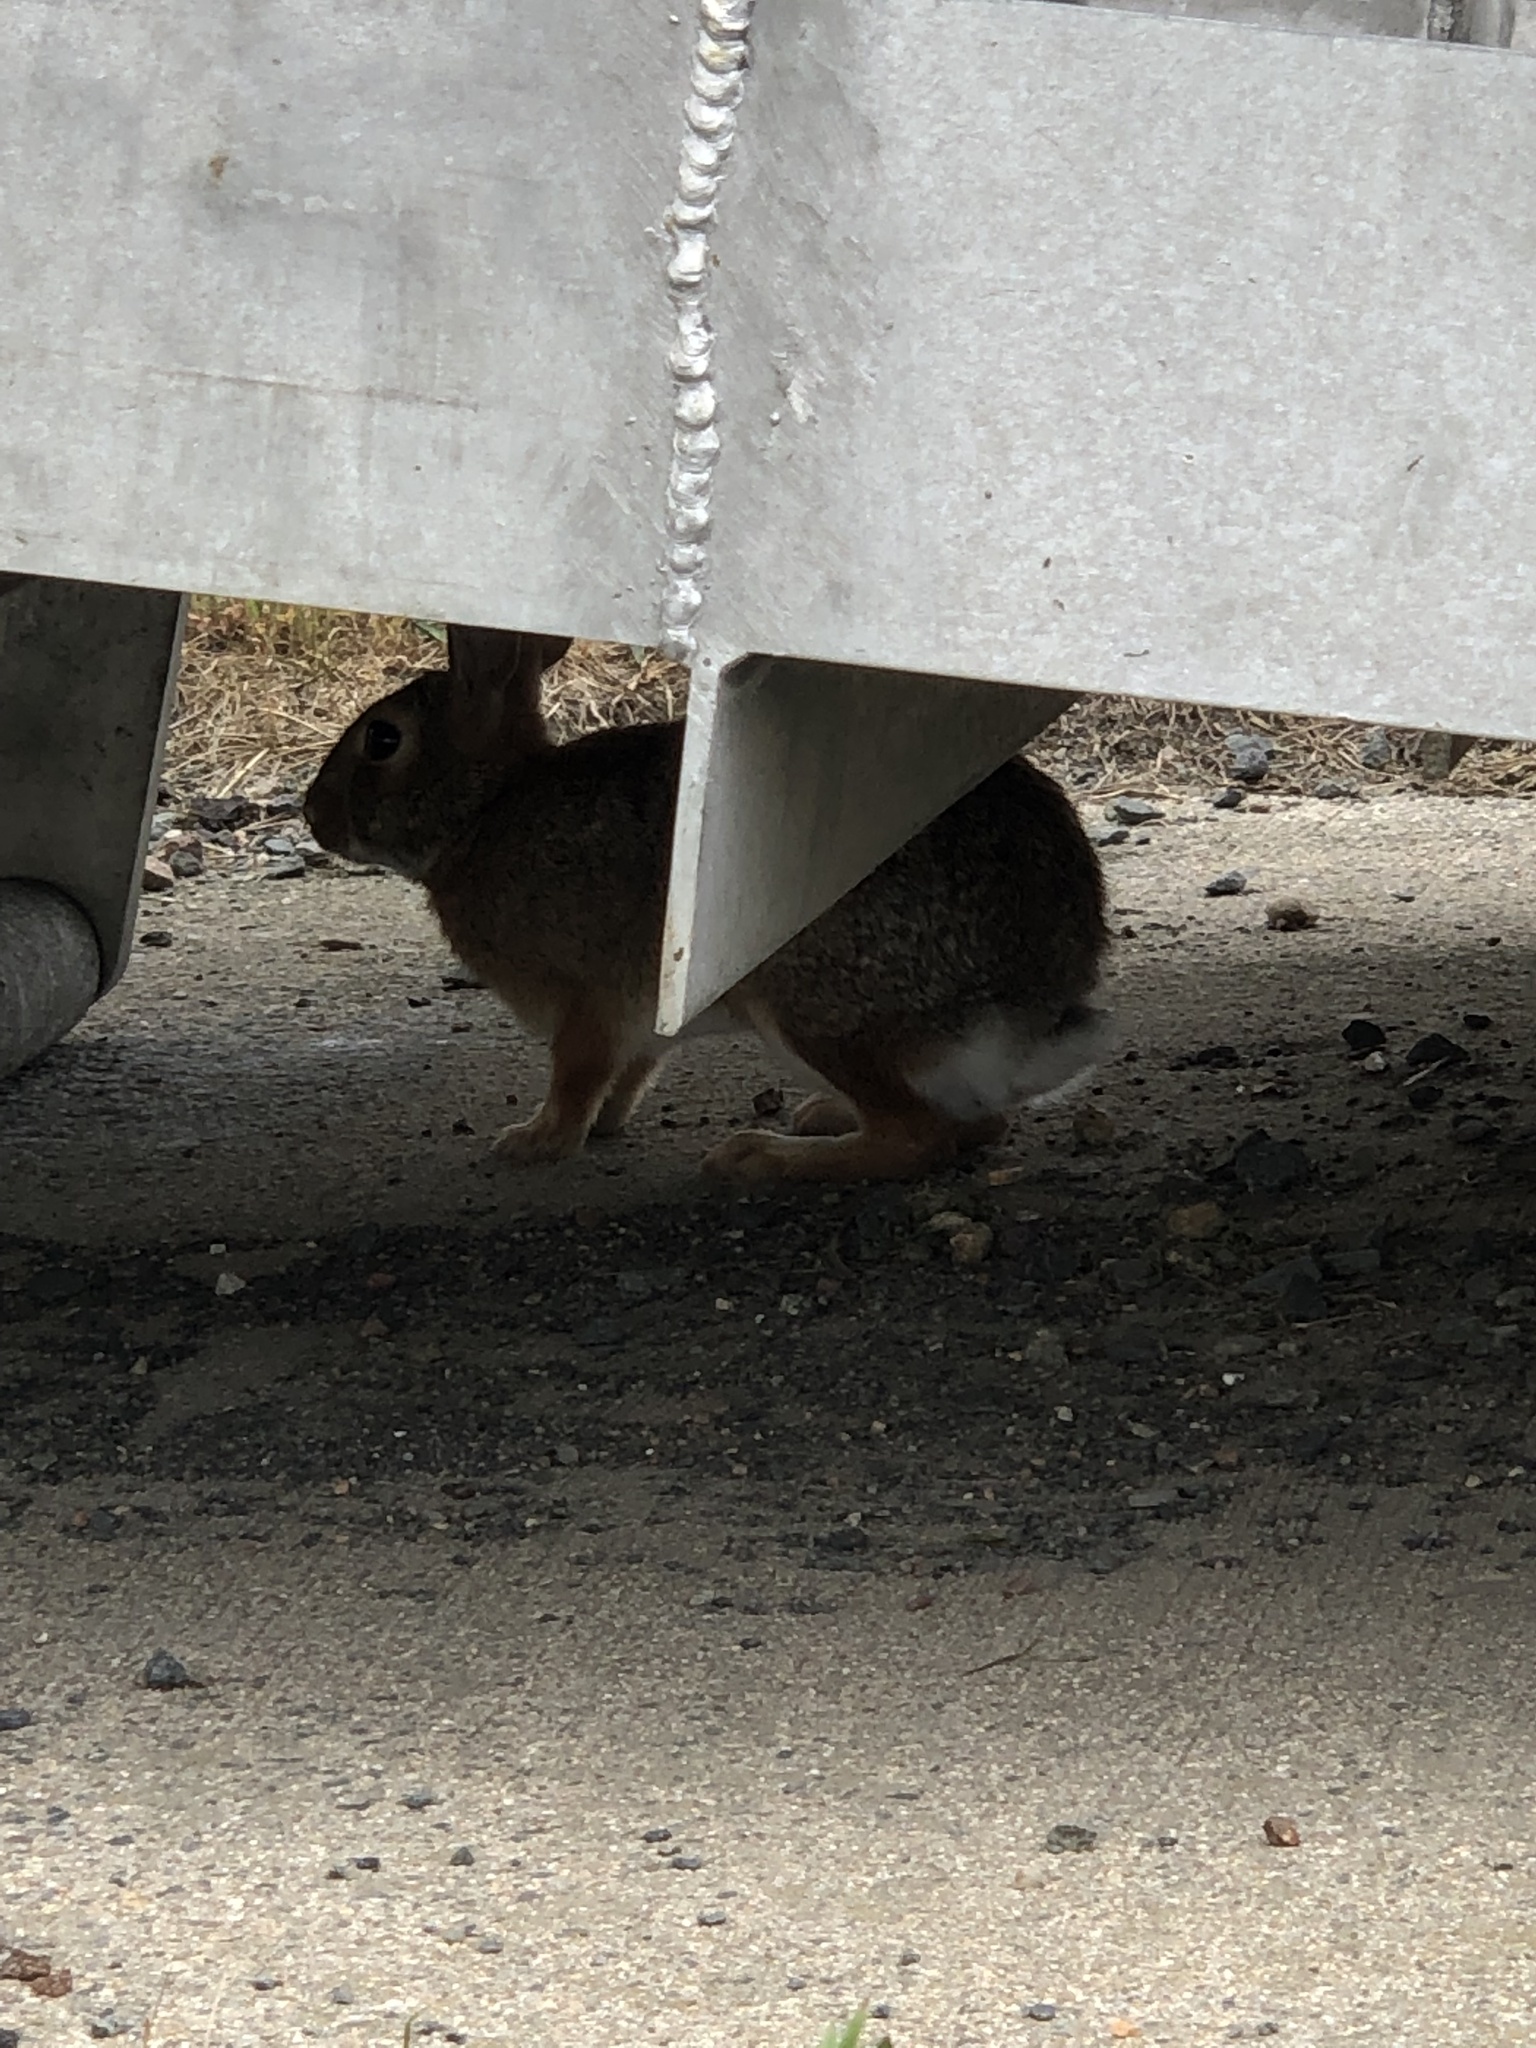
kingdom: Animalia
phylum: Chordata
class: Mammalia
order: Lagomorpha
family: Leporidae
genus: Sylvilagus
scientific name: Sylvilagus floridanus
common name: Eastern cottontail
